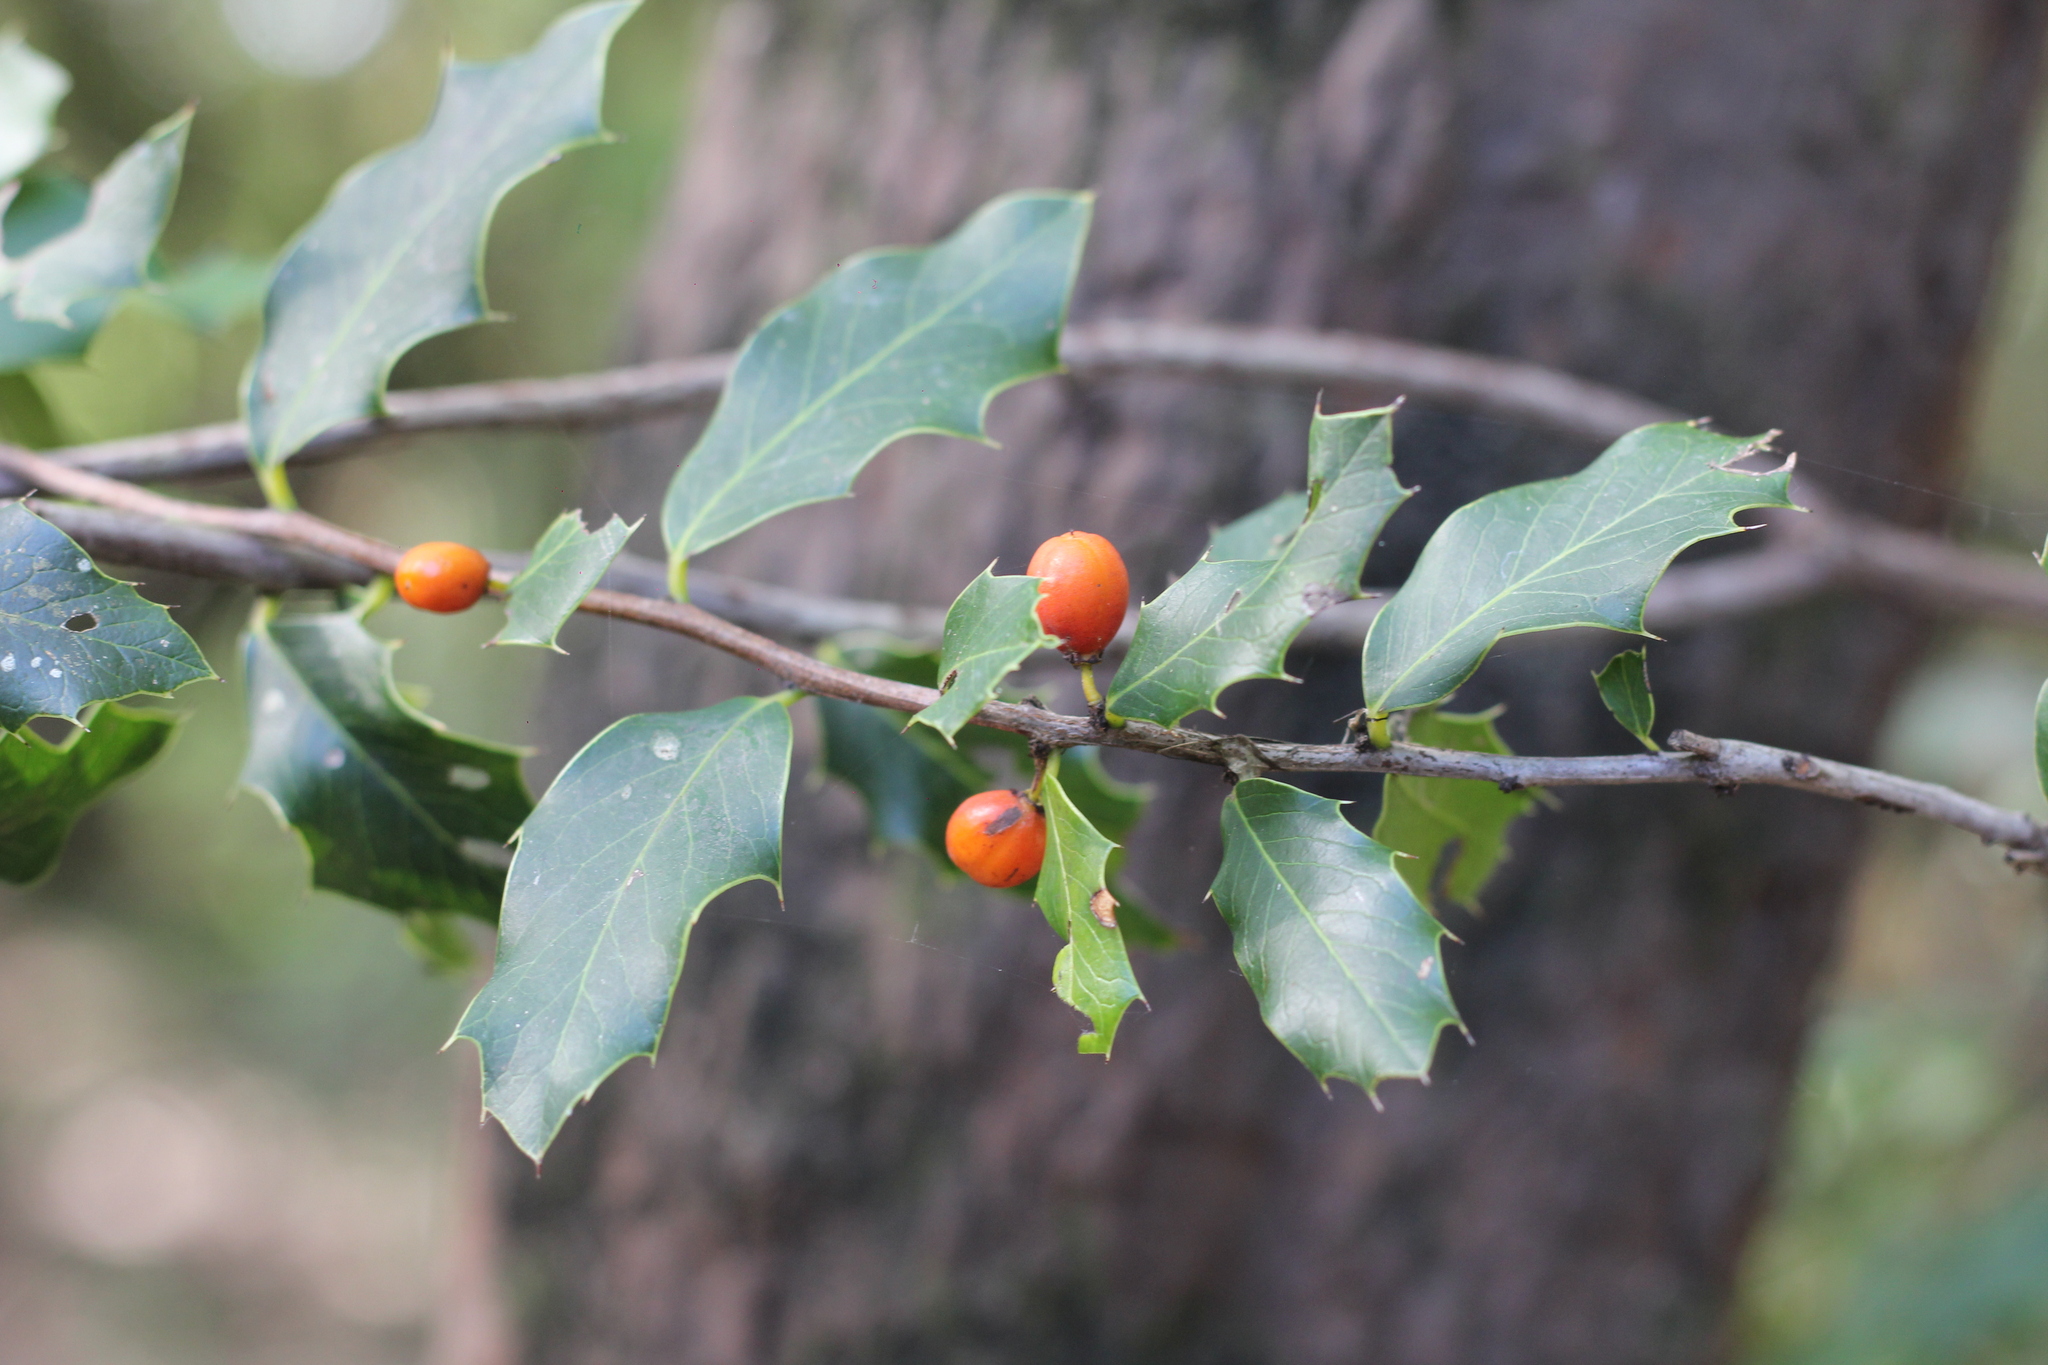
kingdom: Plantae
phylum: Tracheophyta
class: Magnoliopsida
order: Celastrales
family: Celastraceae
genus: Monteverdia
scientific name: Monteverdia
